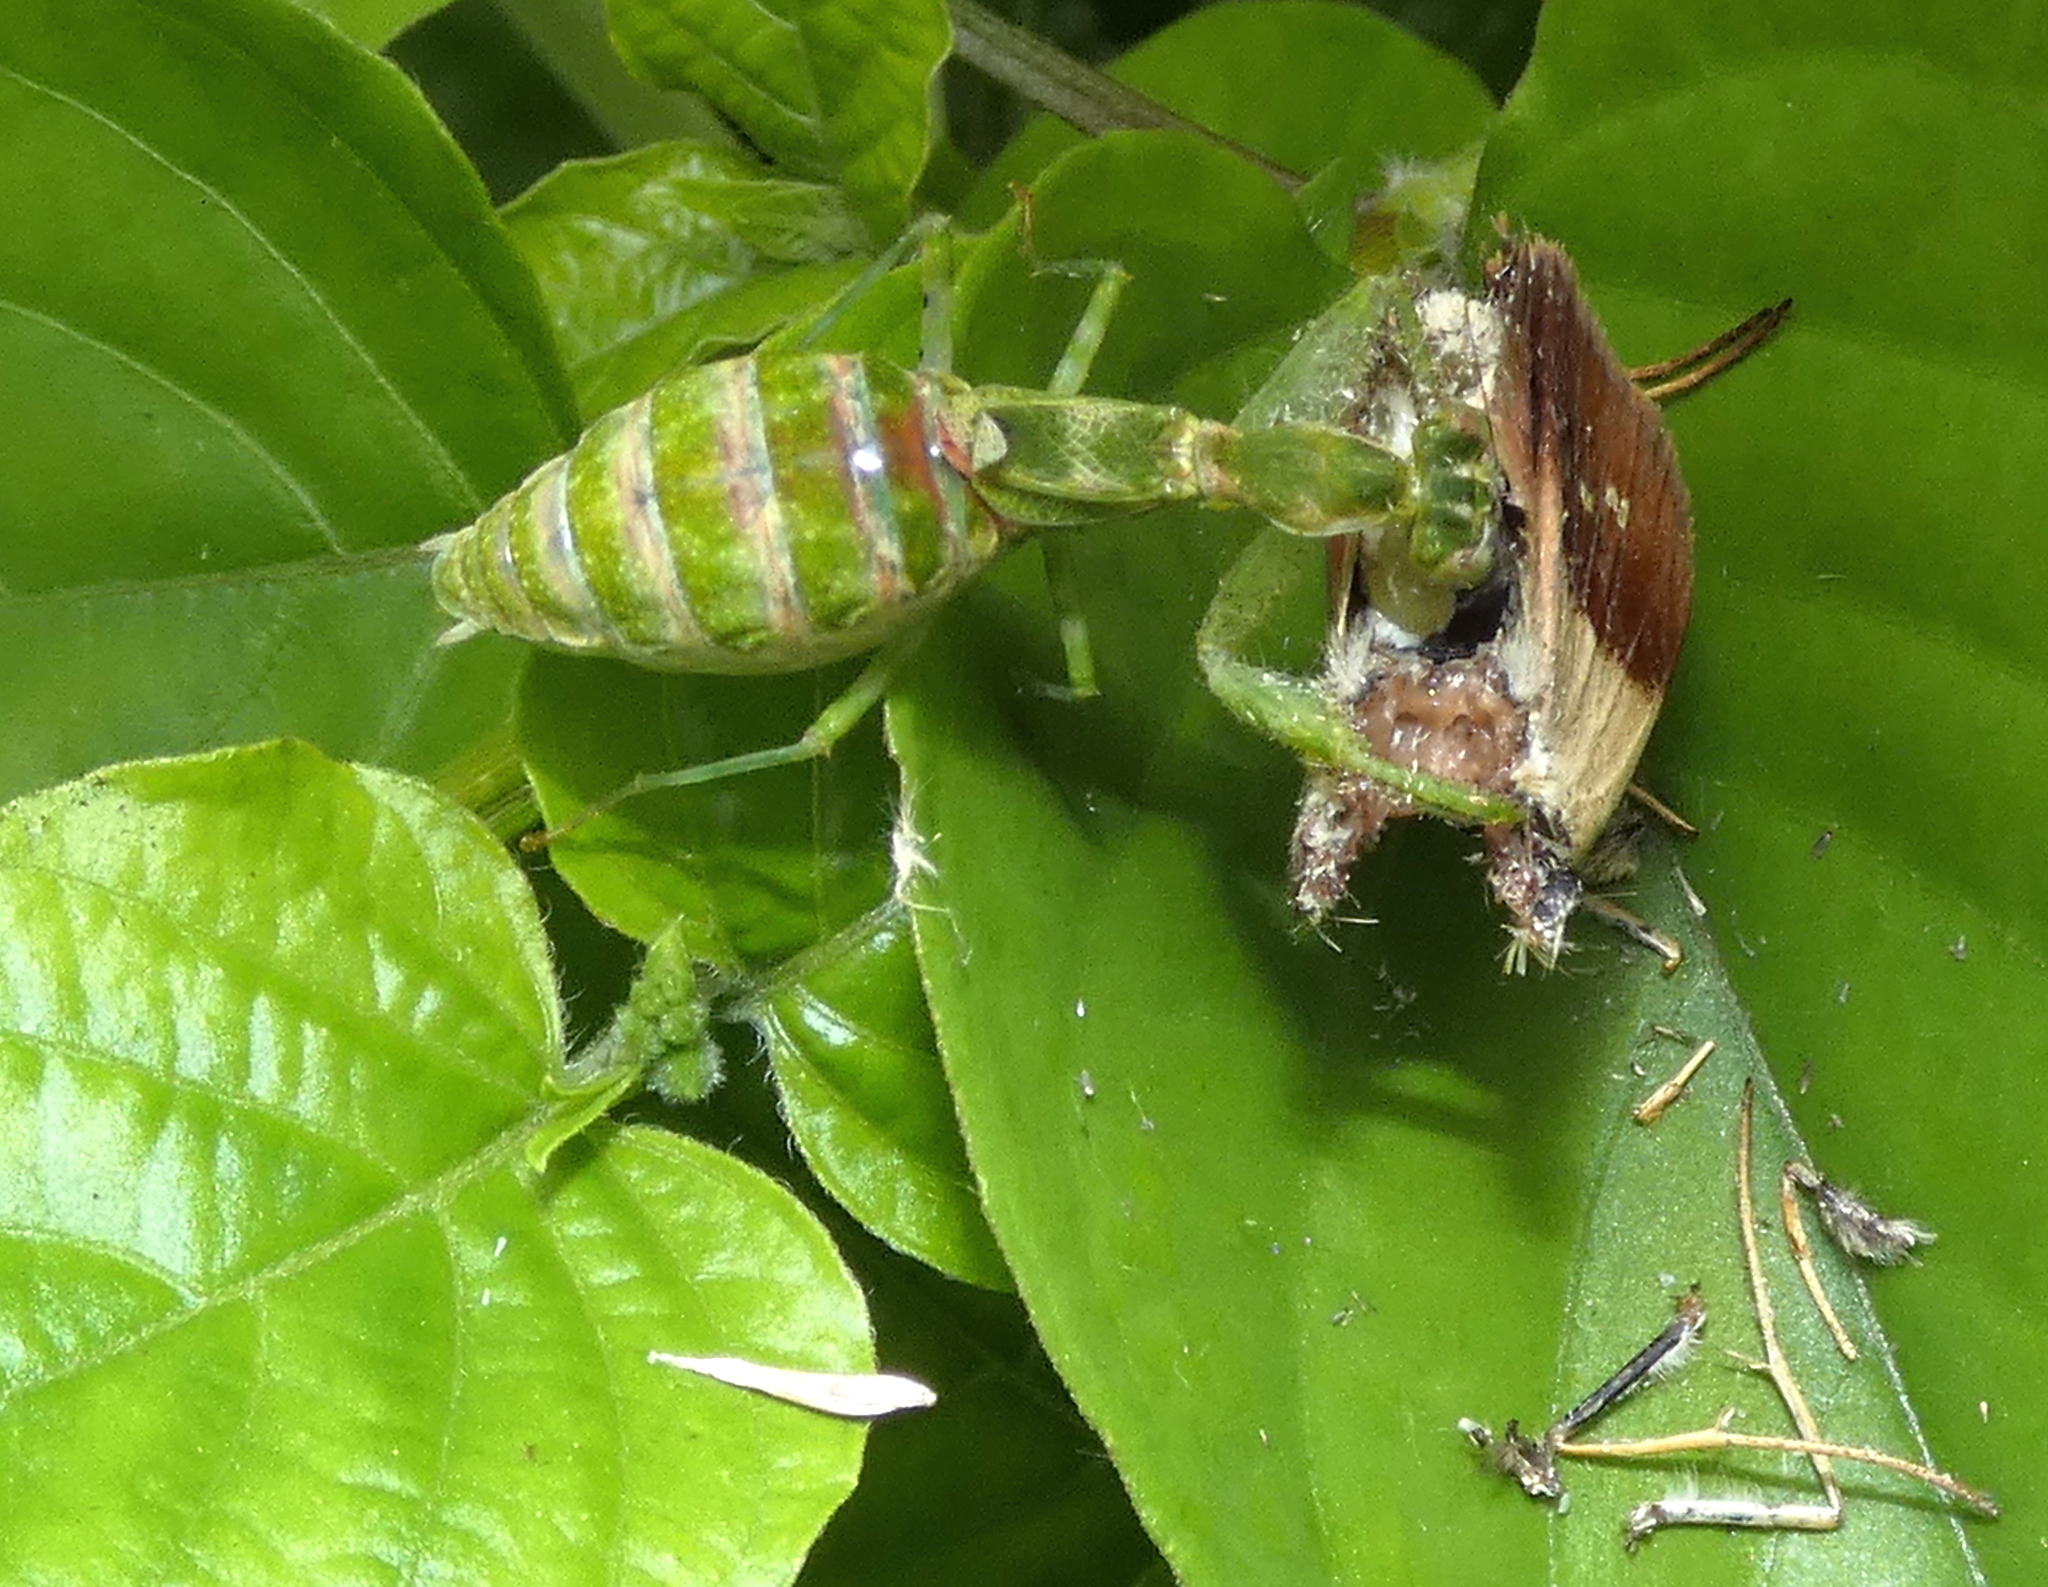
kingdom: Animalia
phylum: Arthropoda
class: Insecta
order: Mantodea
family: Acanthopidae
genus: Acontista
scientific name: Acontista
